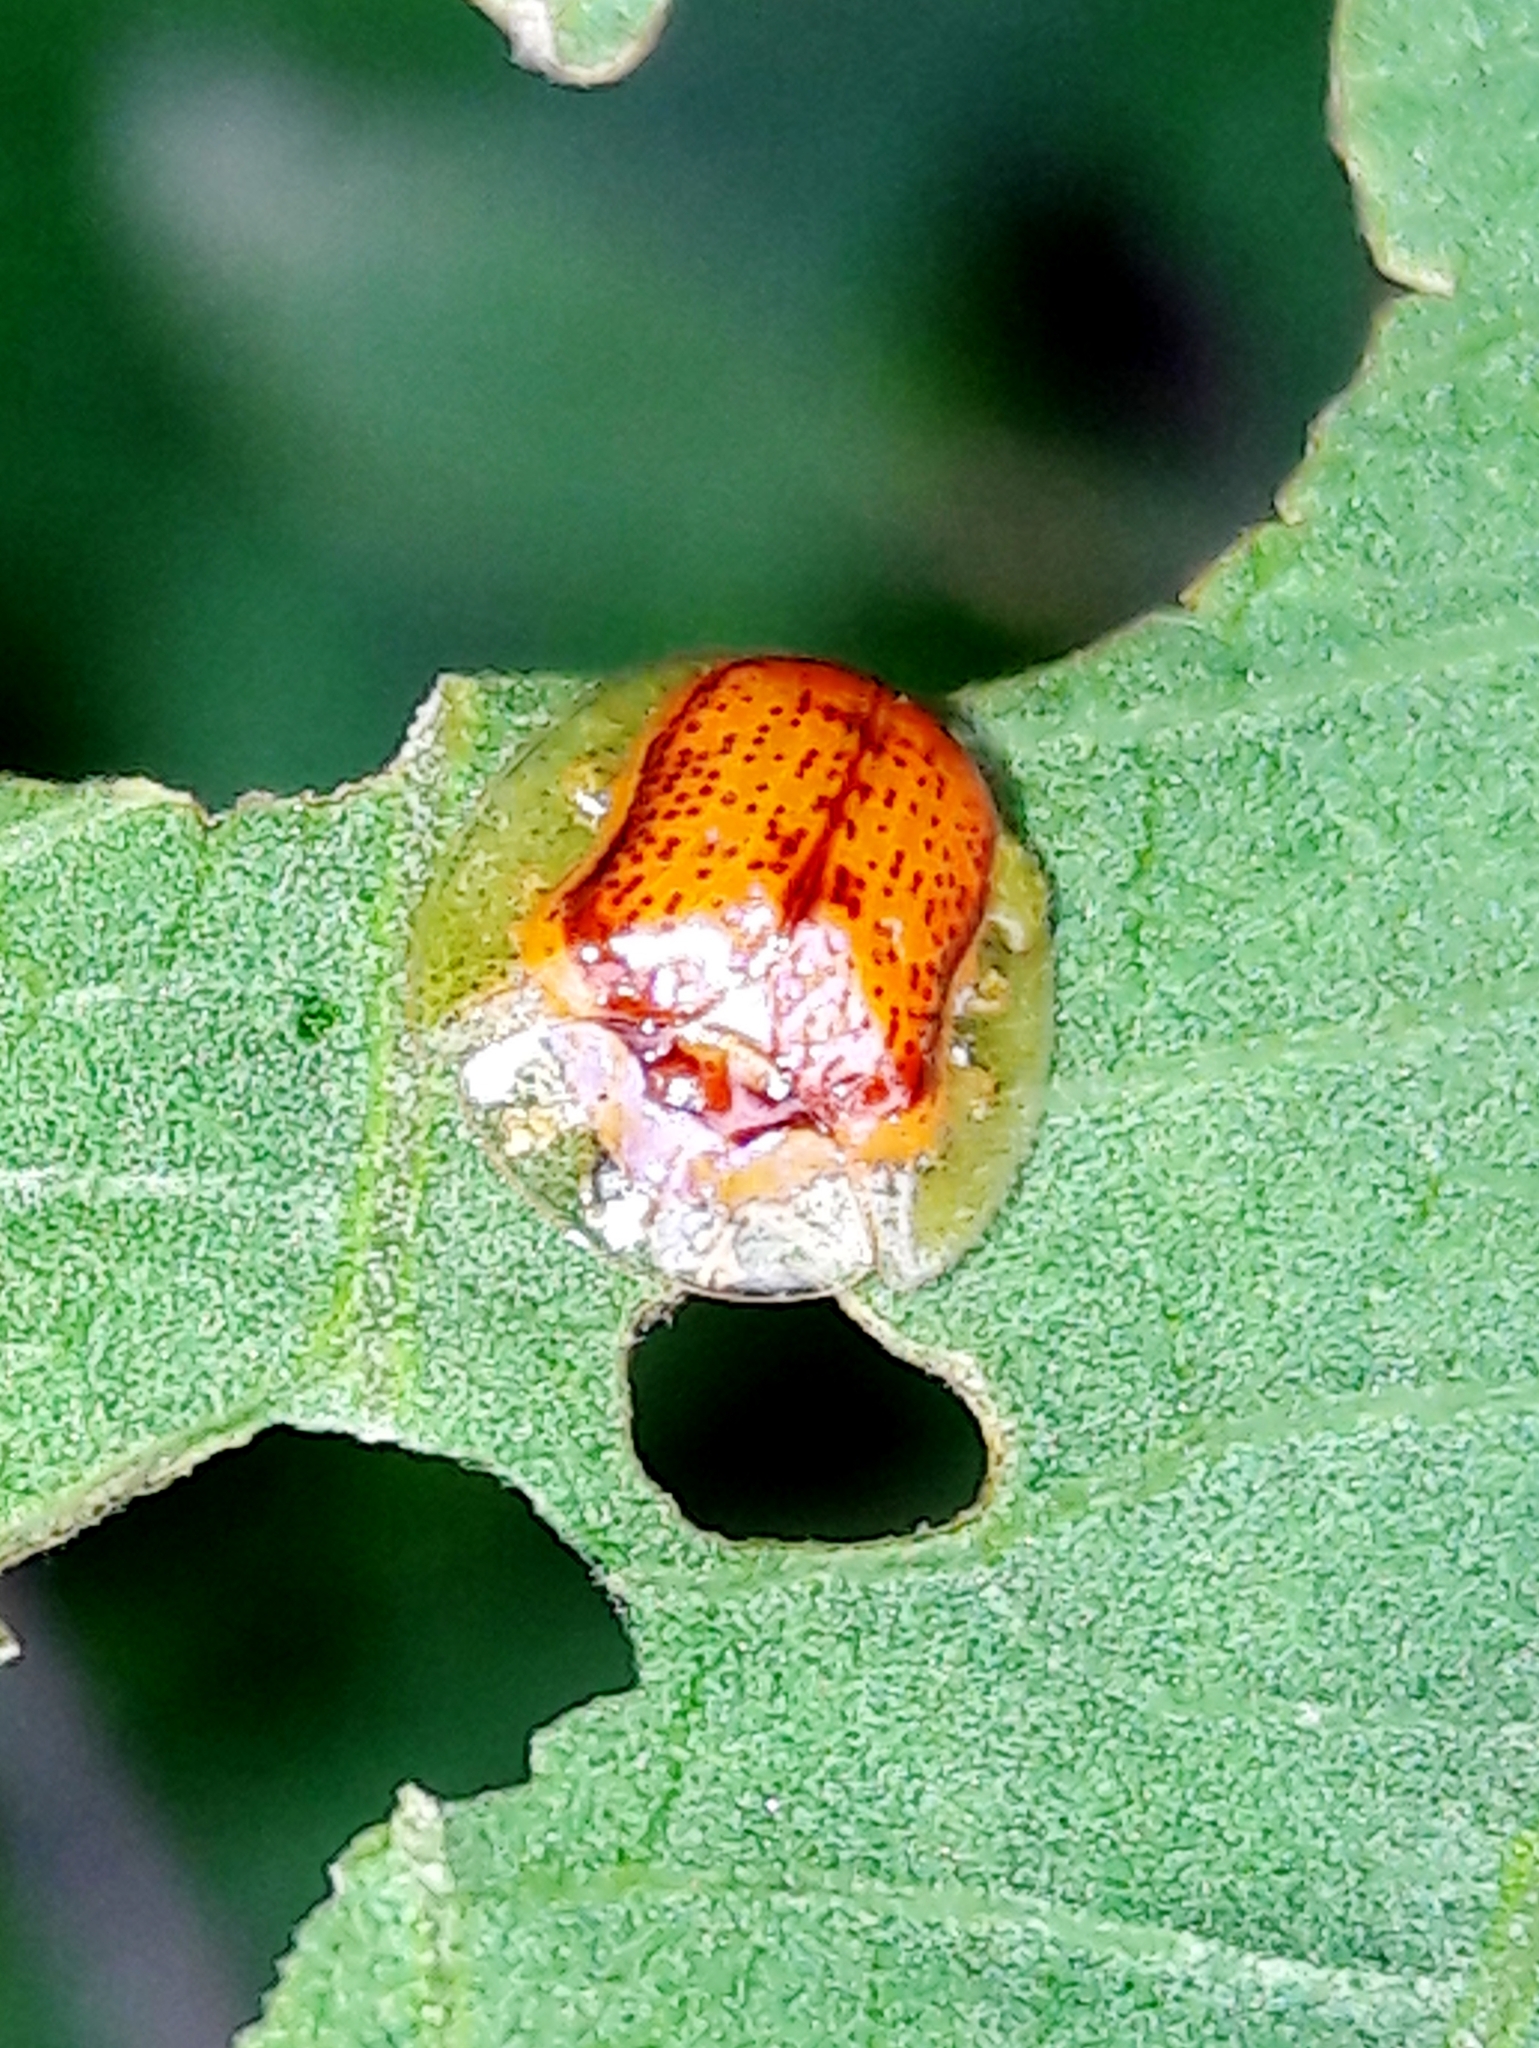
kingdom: Animalia
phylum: Arthropoda
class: Insecta
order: Coleoptera
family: Chrysomelidae
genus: Microctenochira
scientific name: Microctenochira quadrata
